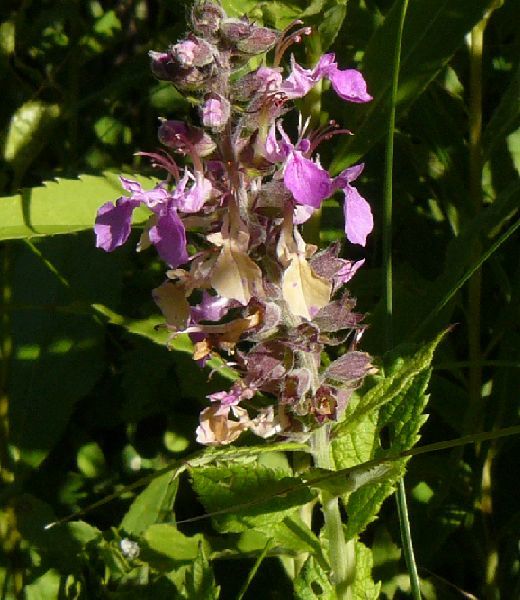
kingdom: Plantae
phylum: Tracheophyta
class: Magnoliopsida
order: Lamiales
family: Lamiaceae
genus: Teucrium
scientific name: Teucrium canadense
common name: American germander
